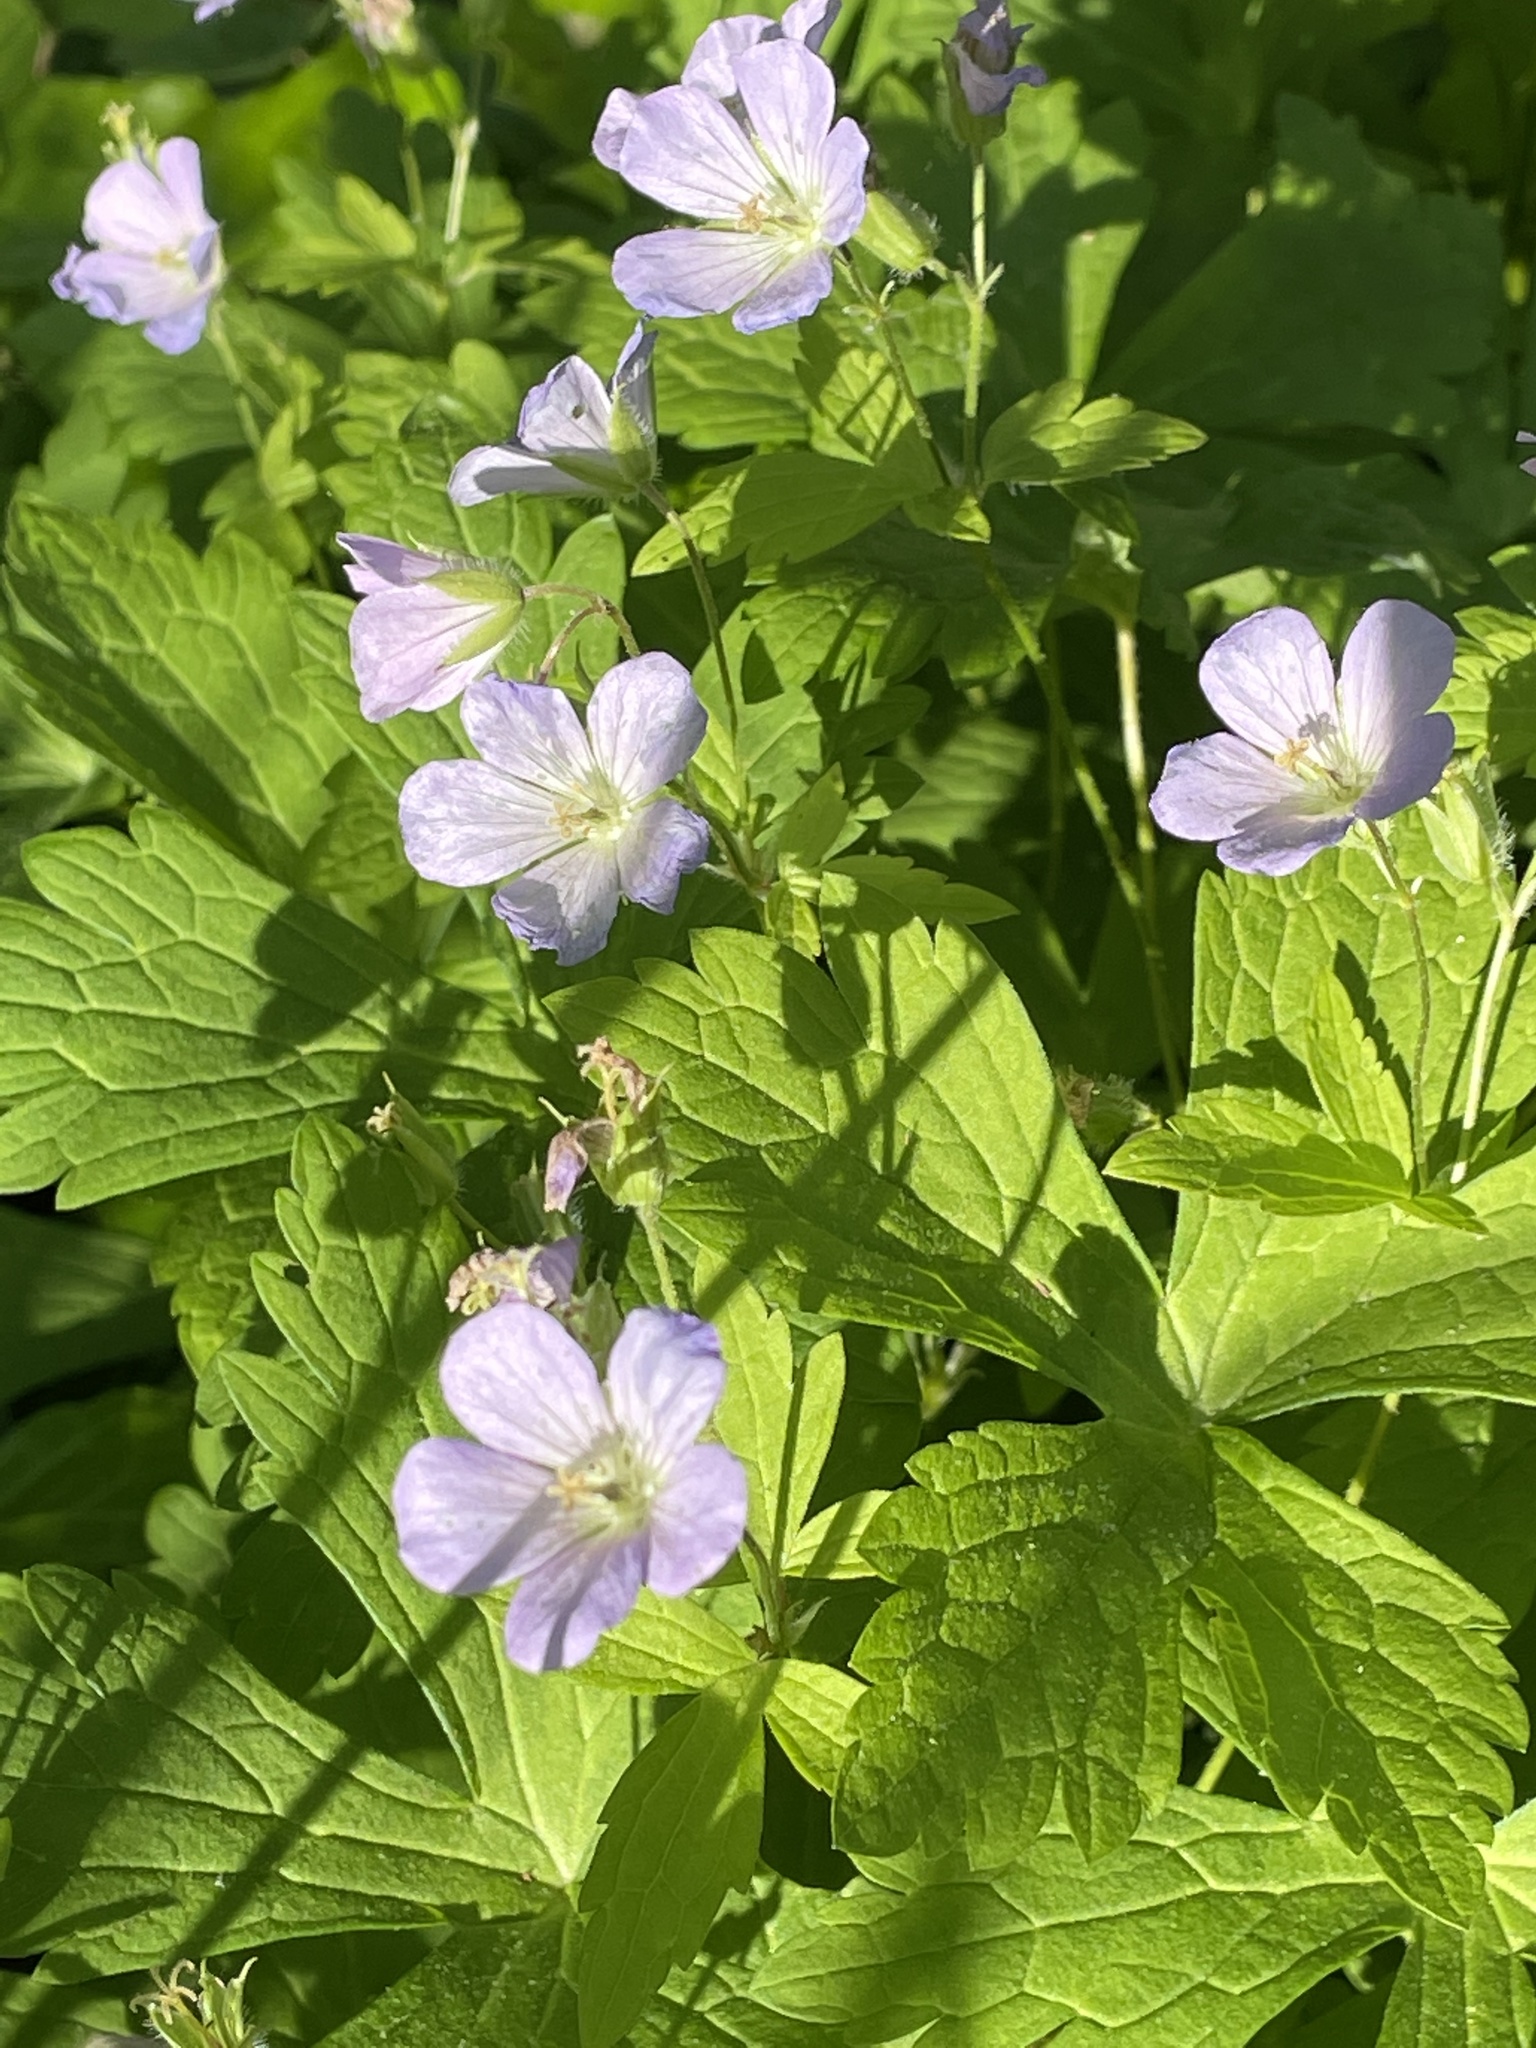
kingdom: Plantae
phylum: Tracheophyta
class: Magnoliopsida
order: Geraniales
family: Geraniaceae
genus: Geranium
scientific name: Geranium maculatum
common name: Spotted geranium
